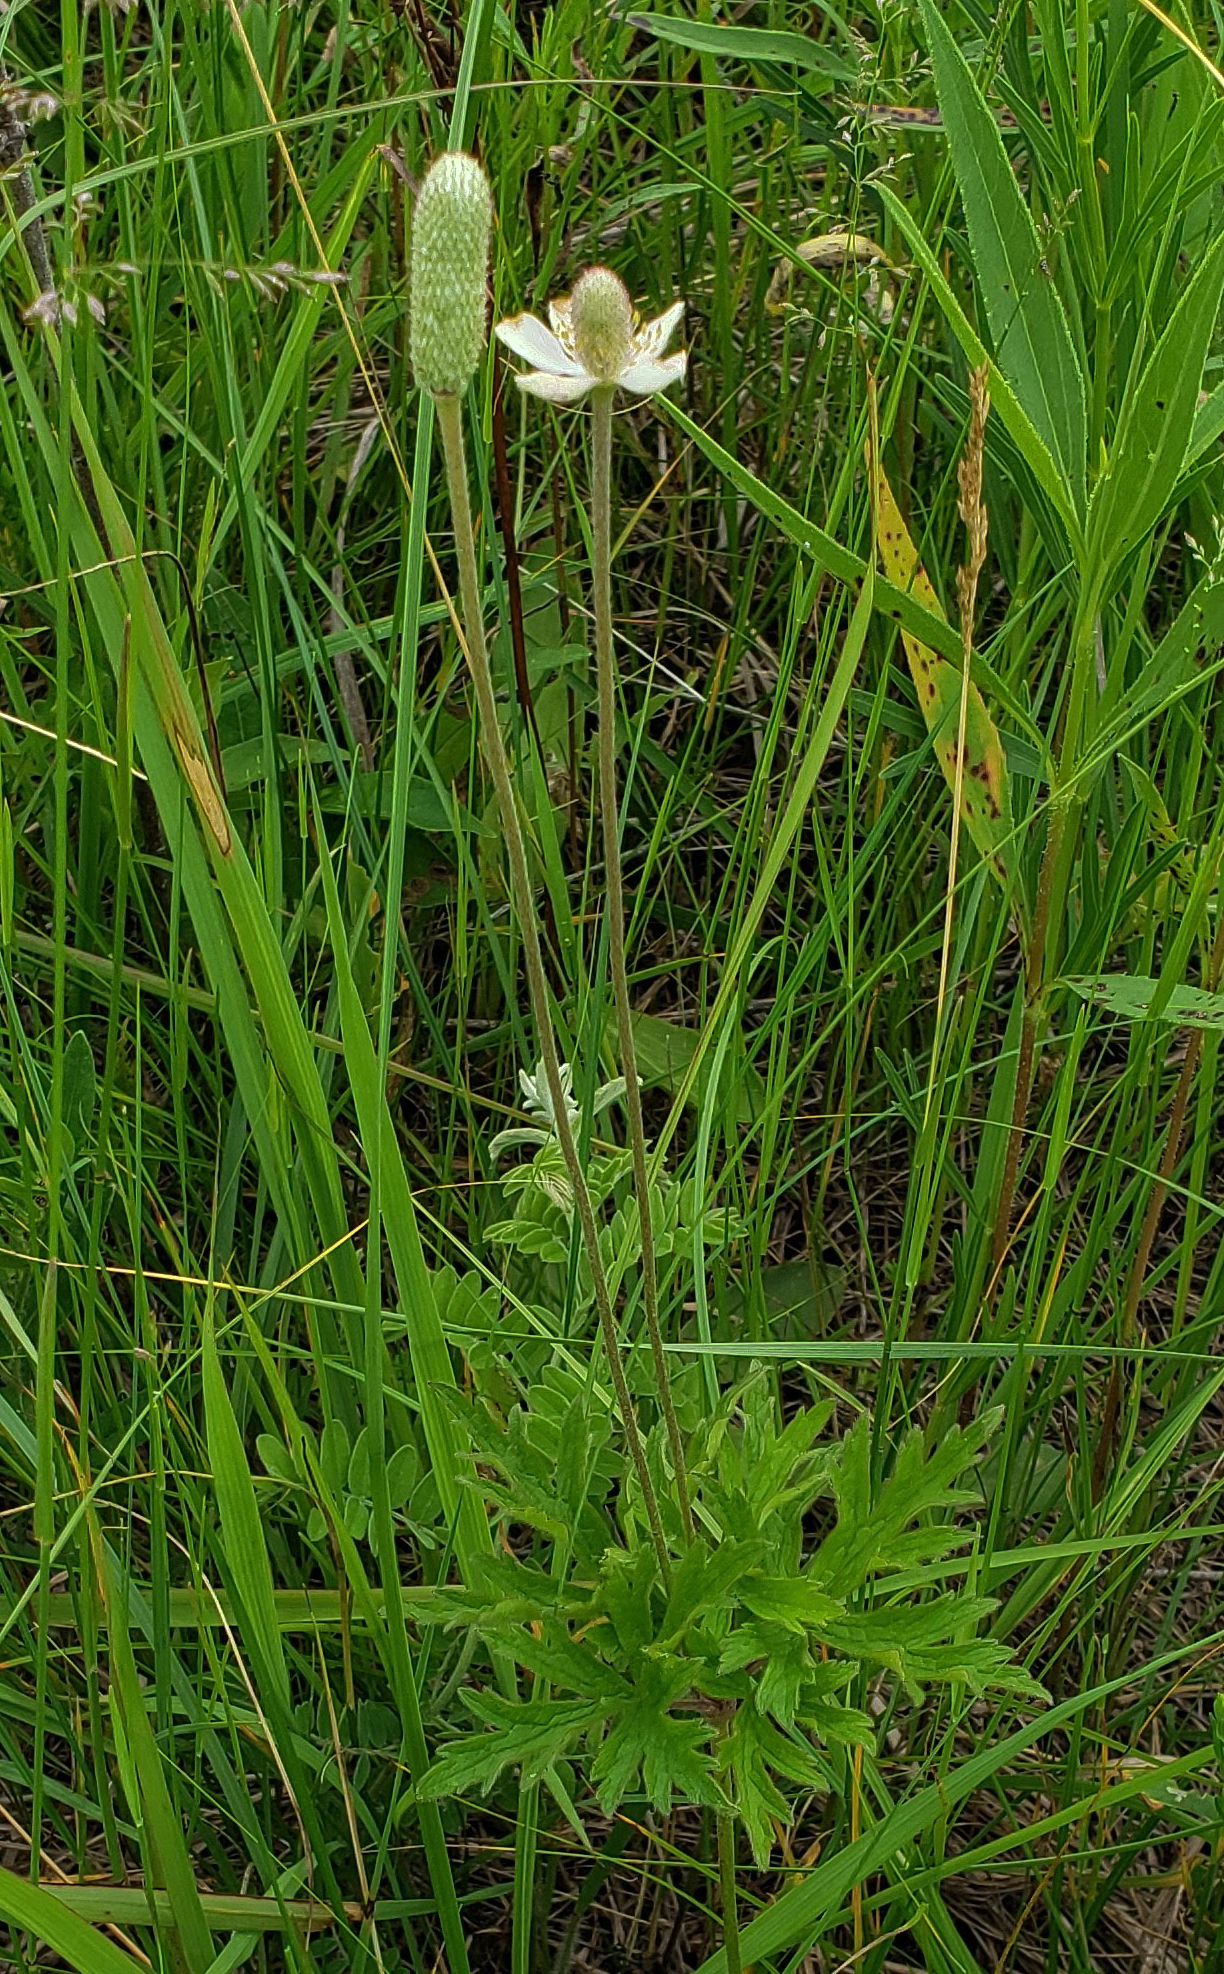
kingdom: Plantae
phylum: Tracheophyta
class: Magnoliopsida
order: Ranunculales
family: Ranunculaceae
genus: Anemone
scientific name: Anemone cylindrica
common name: Candle anemone
